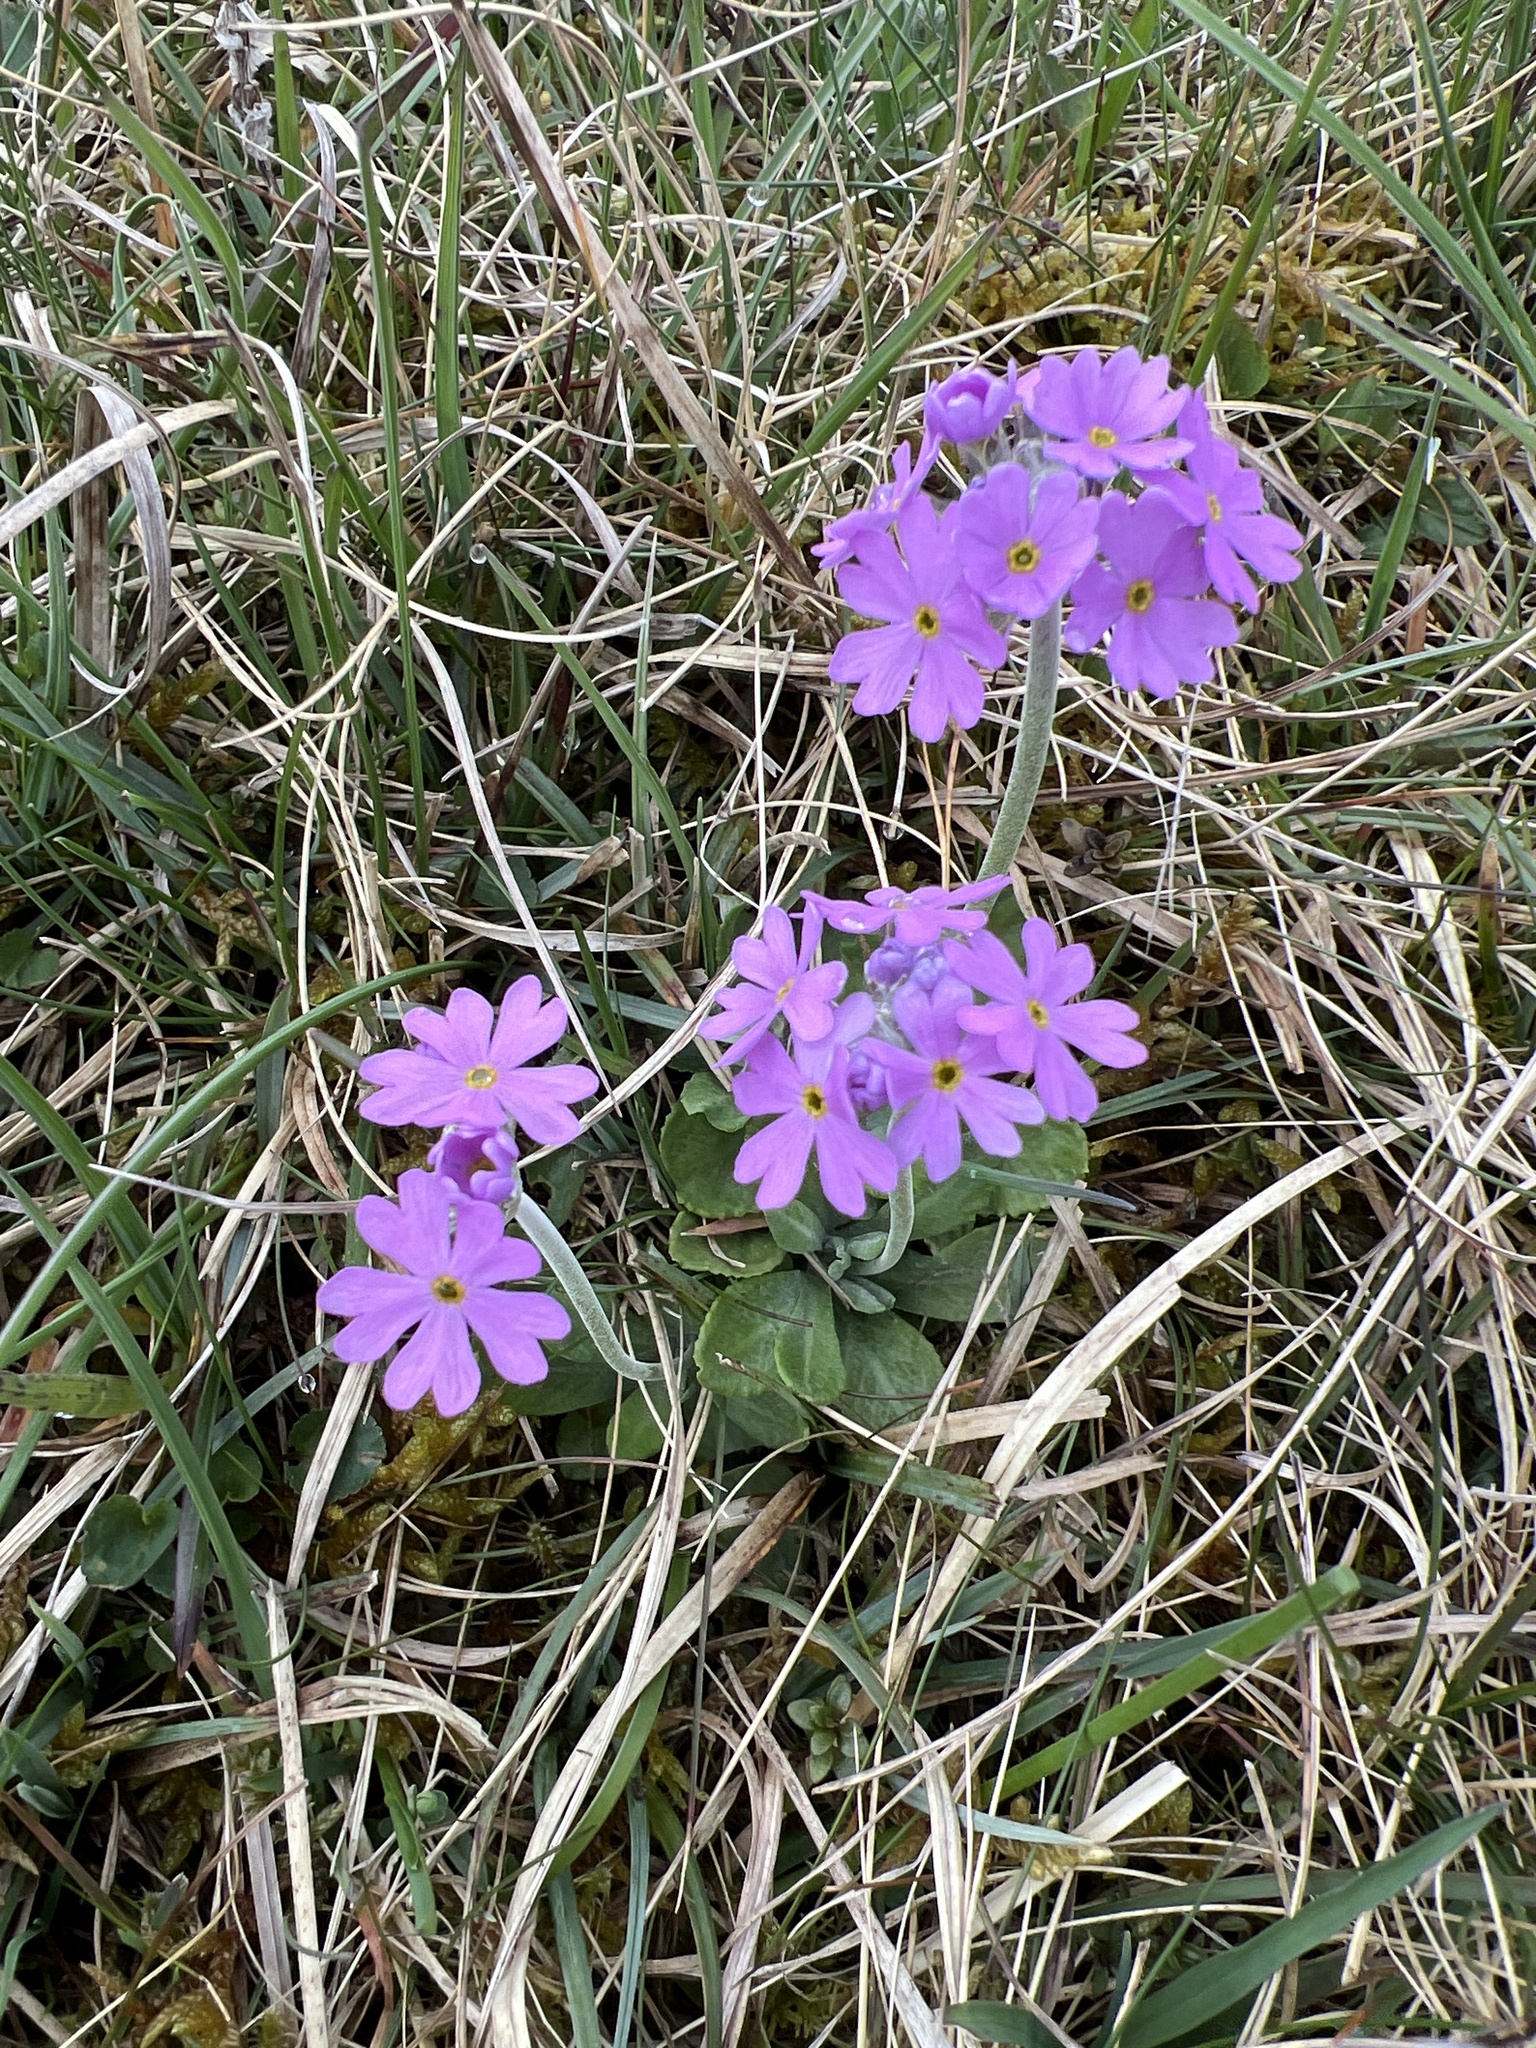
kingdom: Plantae
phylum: Tracheophyta
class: Magnoliopsida
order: Ericales
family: Primulaceae
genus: Primula
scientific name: Primula farinosa
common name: Bird's-eye primrose
